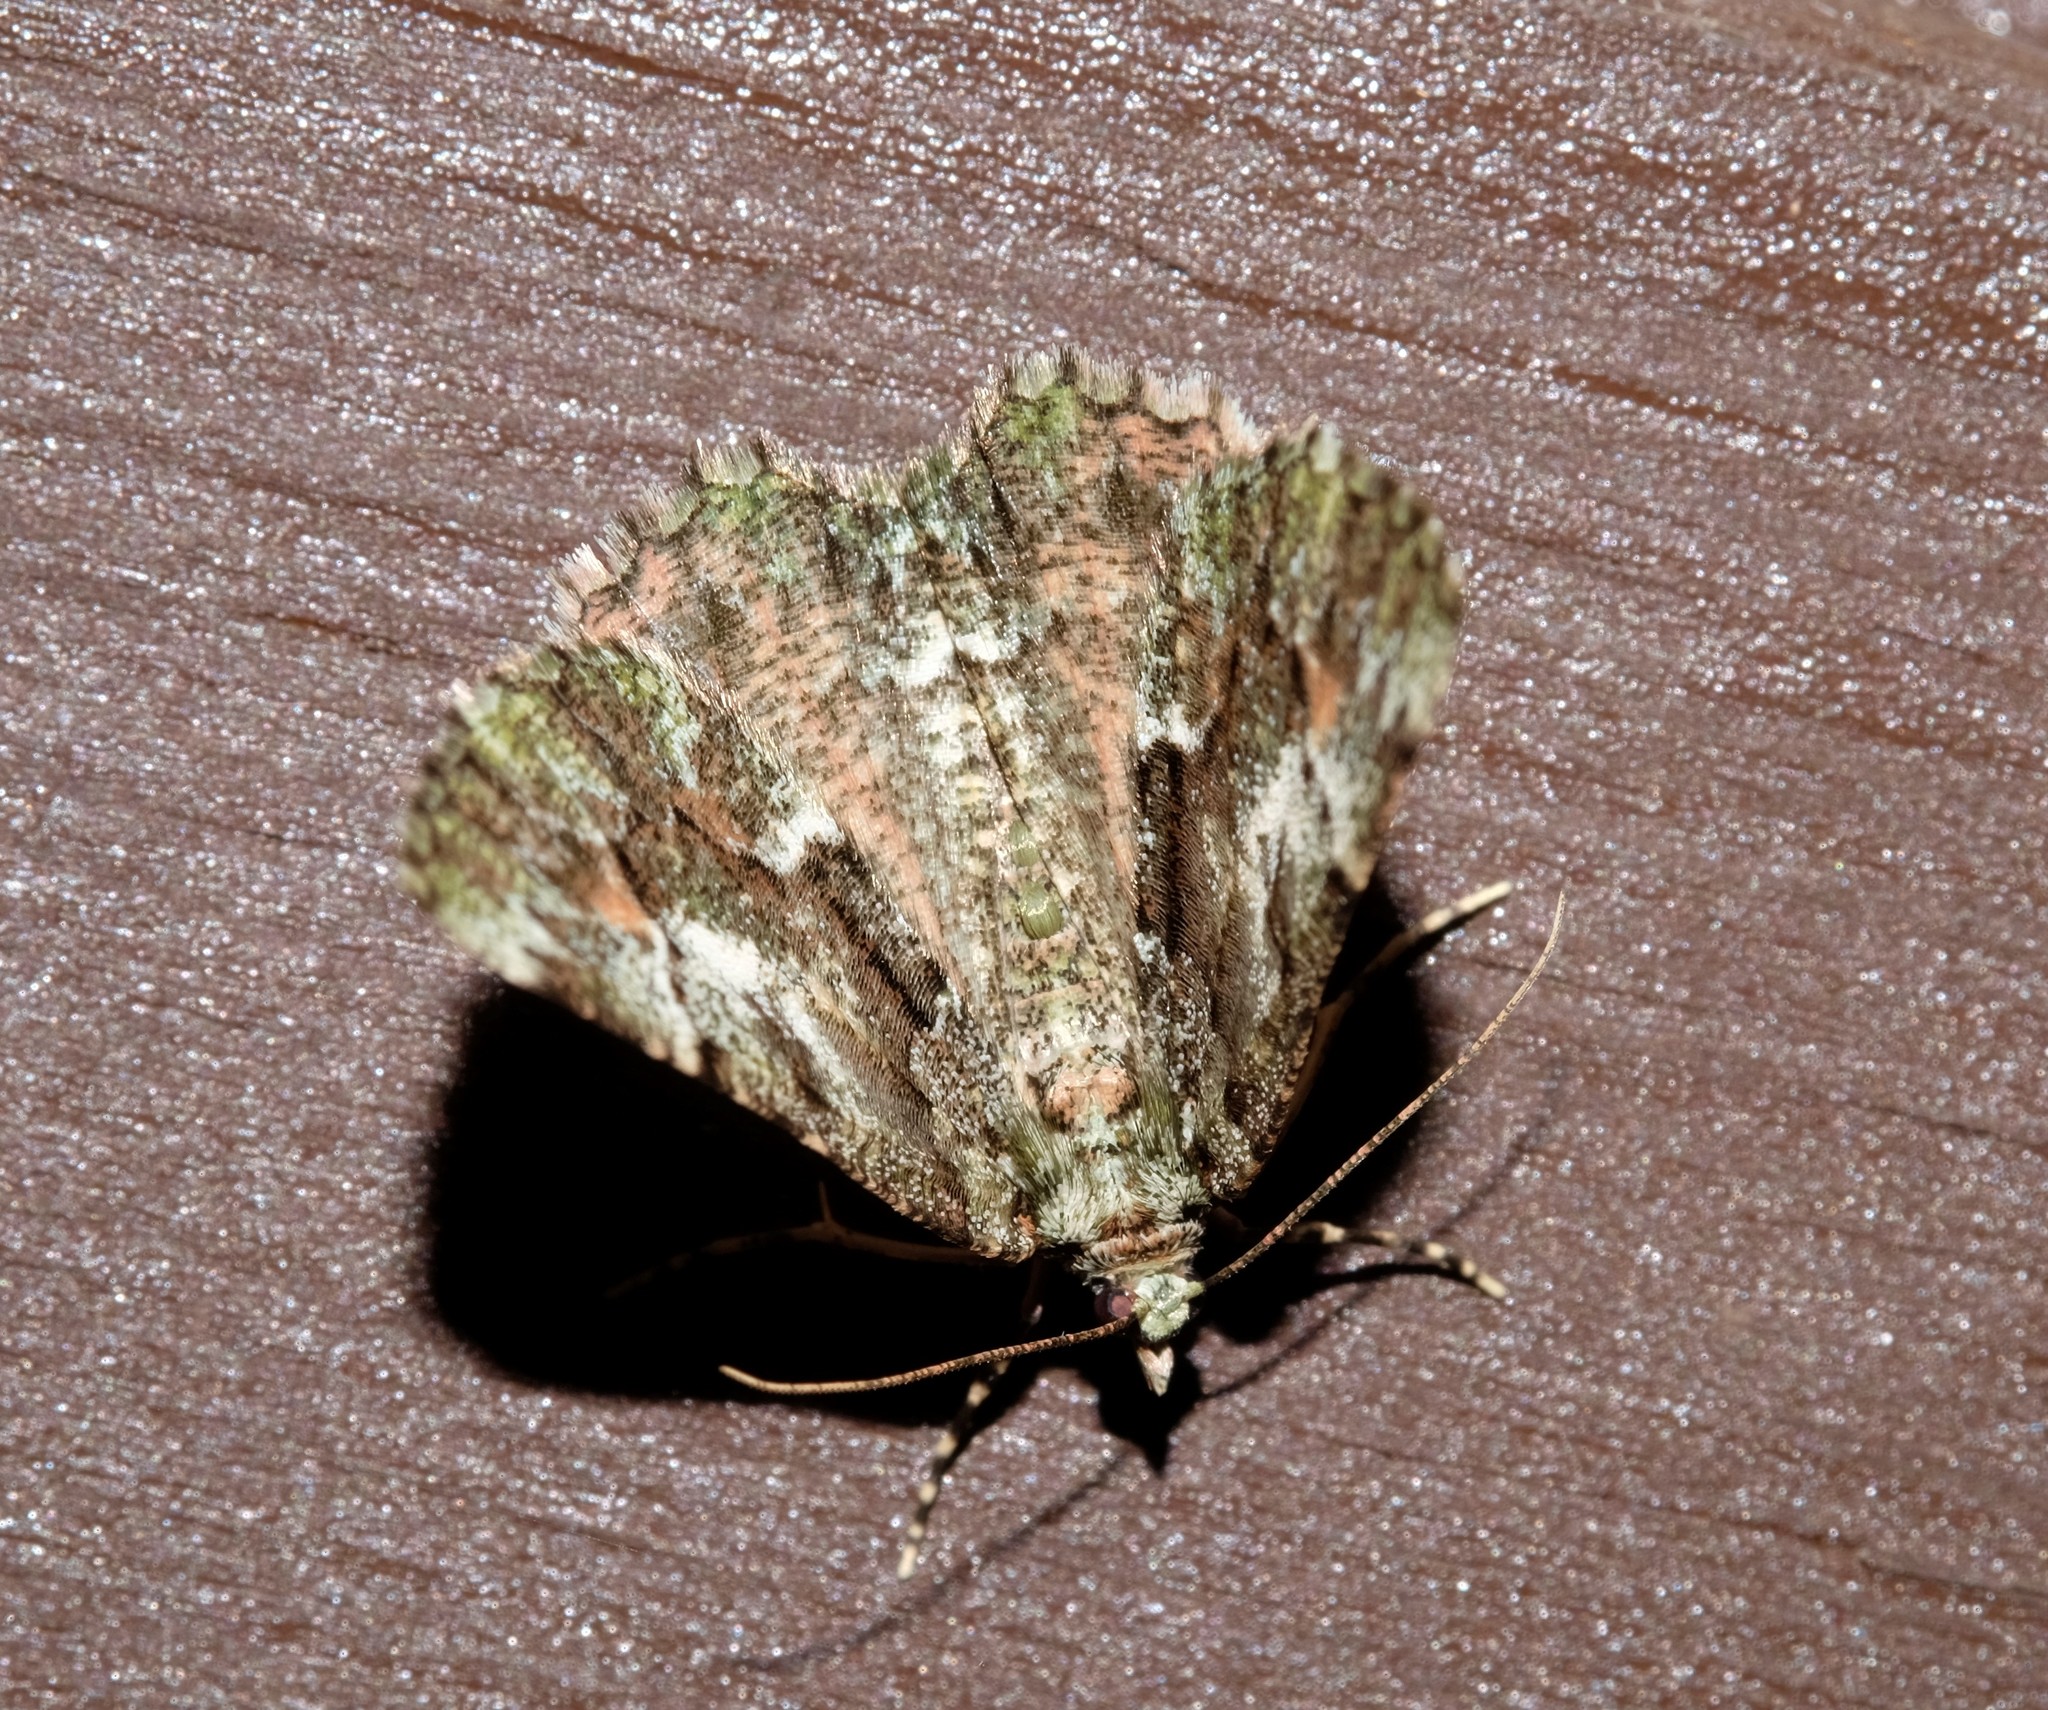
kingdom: Animalia
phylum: Arthropoda
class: Insecta
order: Lepidoptera
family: Geometridae
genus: Aeolochroma
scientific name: Aeolochroma metarhodata
